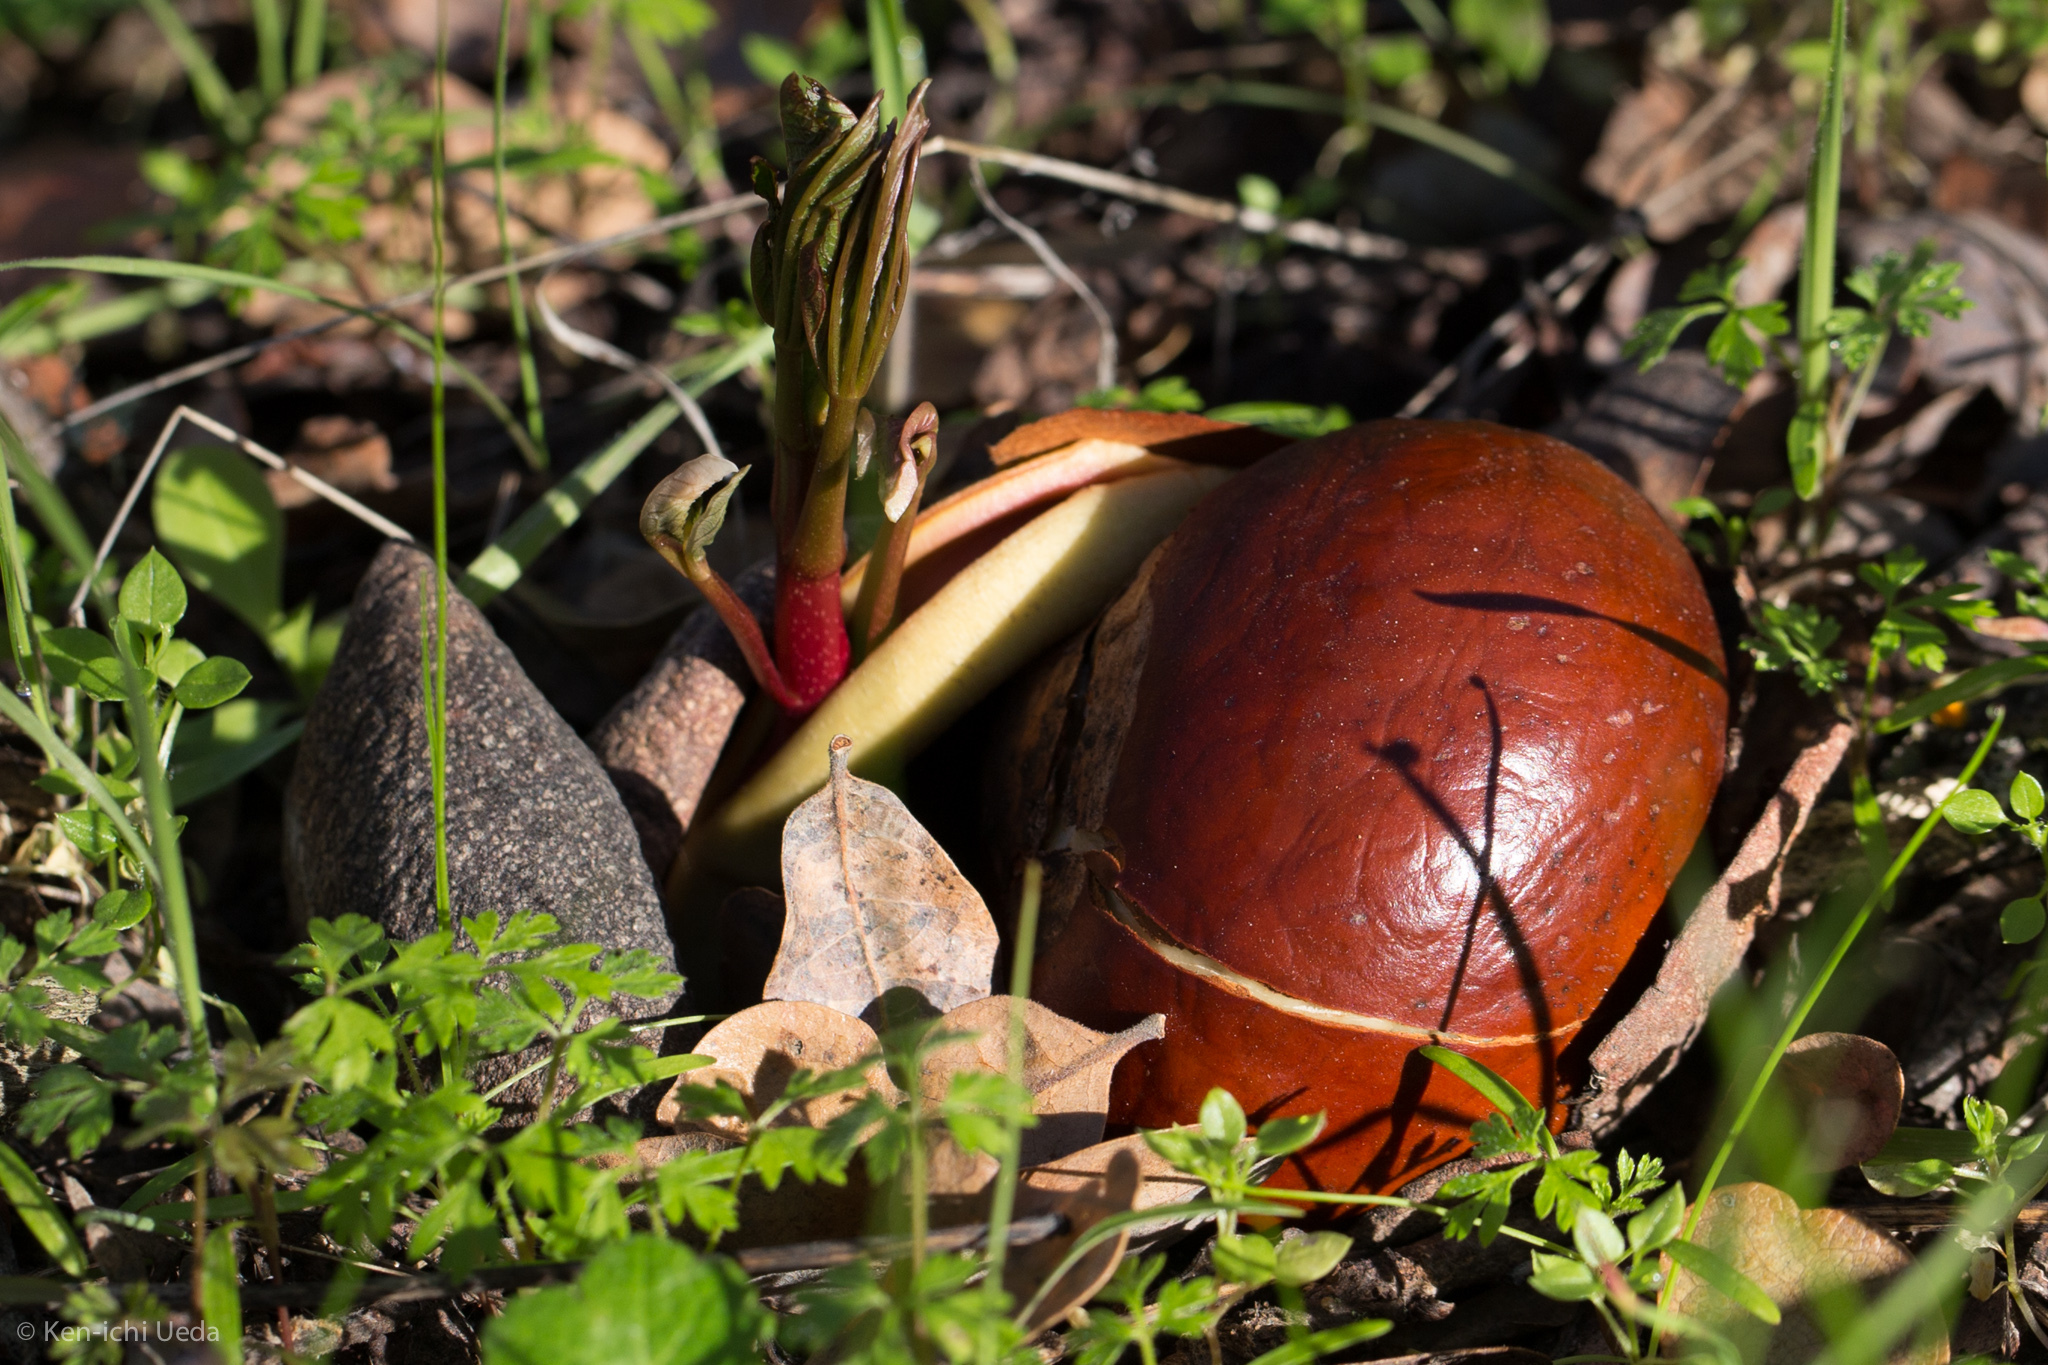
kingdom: Plantae
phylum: Tracheophyta
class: Magnoliopsida
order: Sapindales
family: Sapindaceae
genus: Aesculus
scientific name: Aesculus californica
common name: California buckeye
